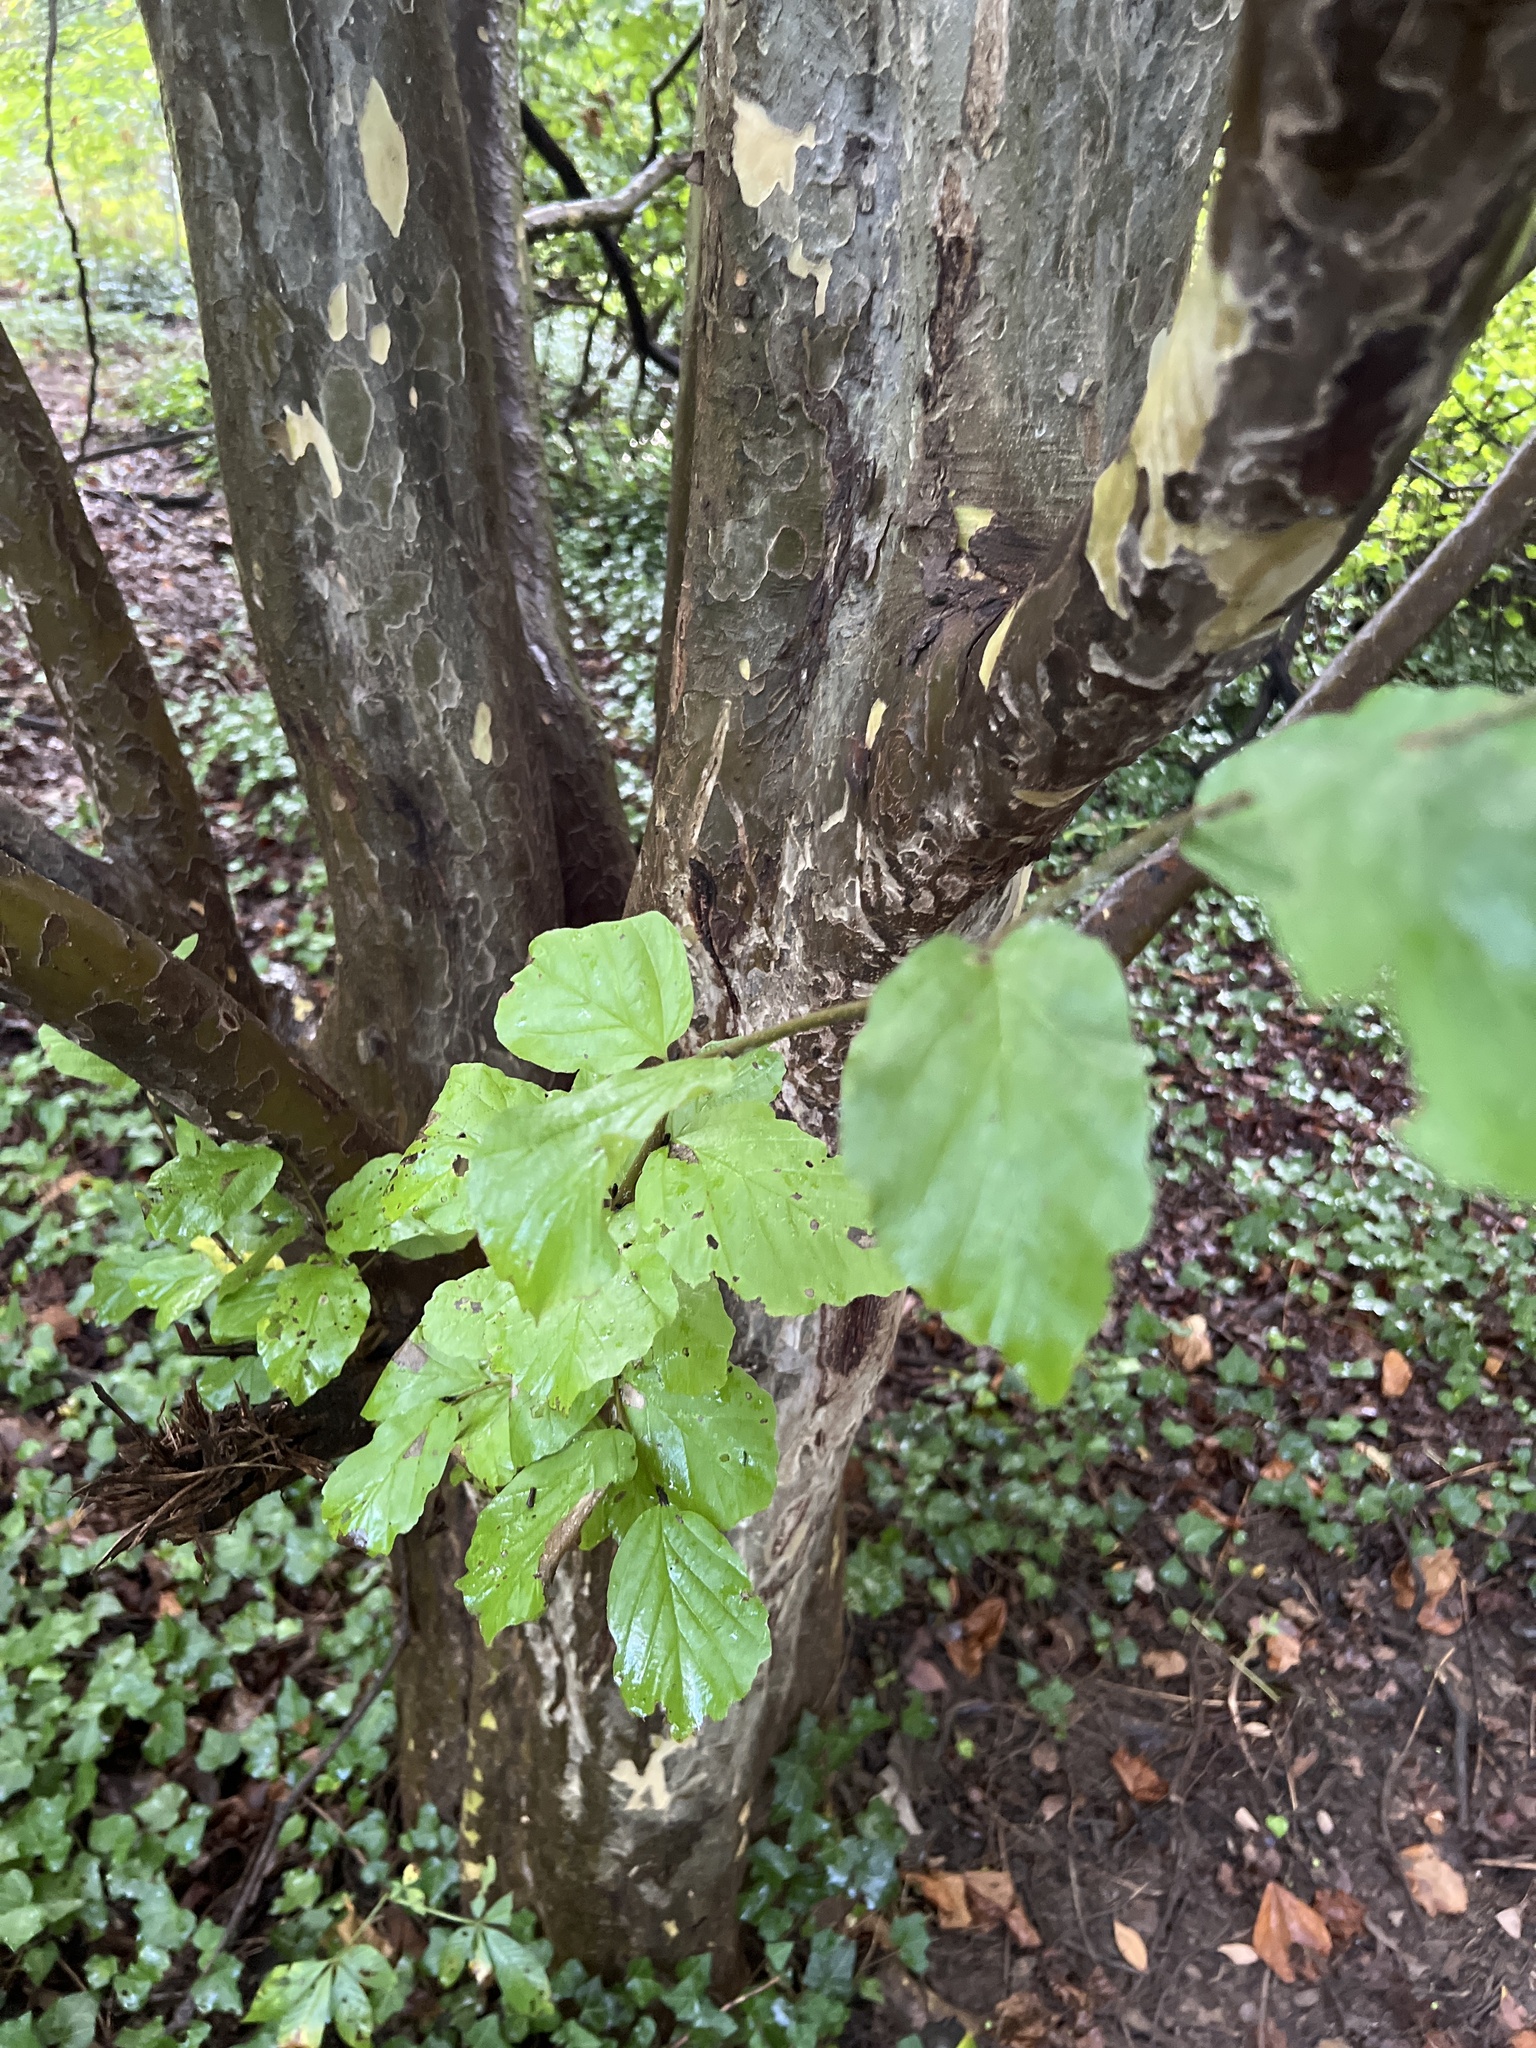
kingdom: Plantae
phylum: Tracheophyta
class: Magnoliopsida
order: Saxifragales
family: Hamamelidaceae
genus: Parrotia
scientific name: Parrotia persica
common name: Persian ironwood
